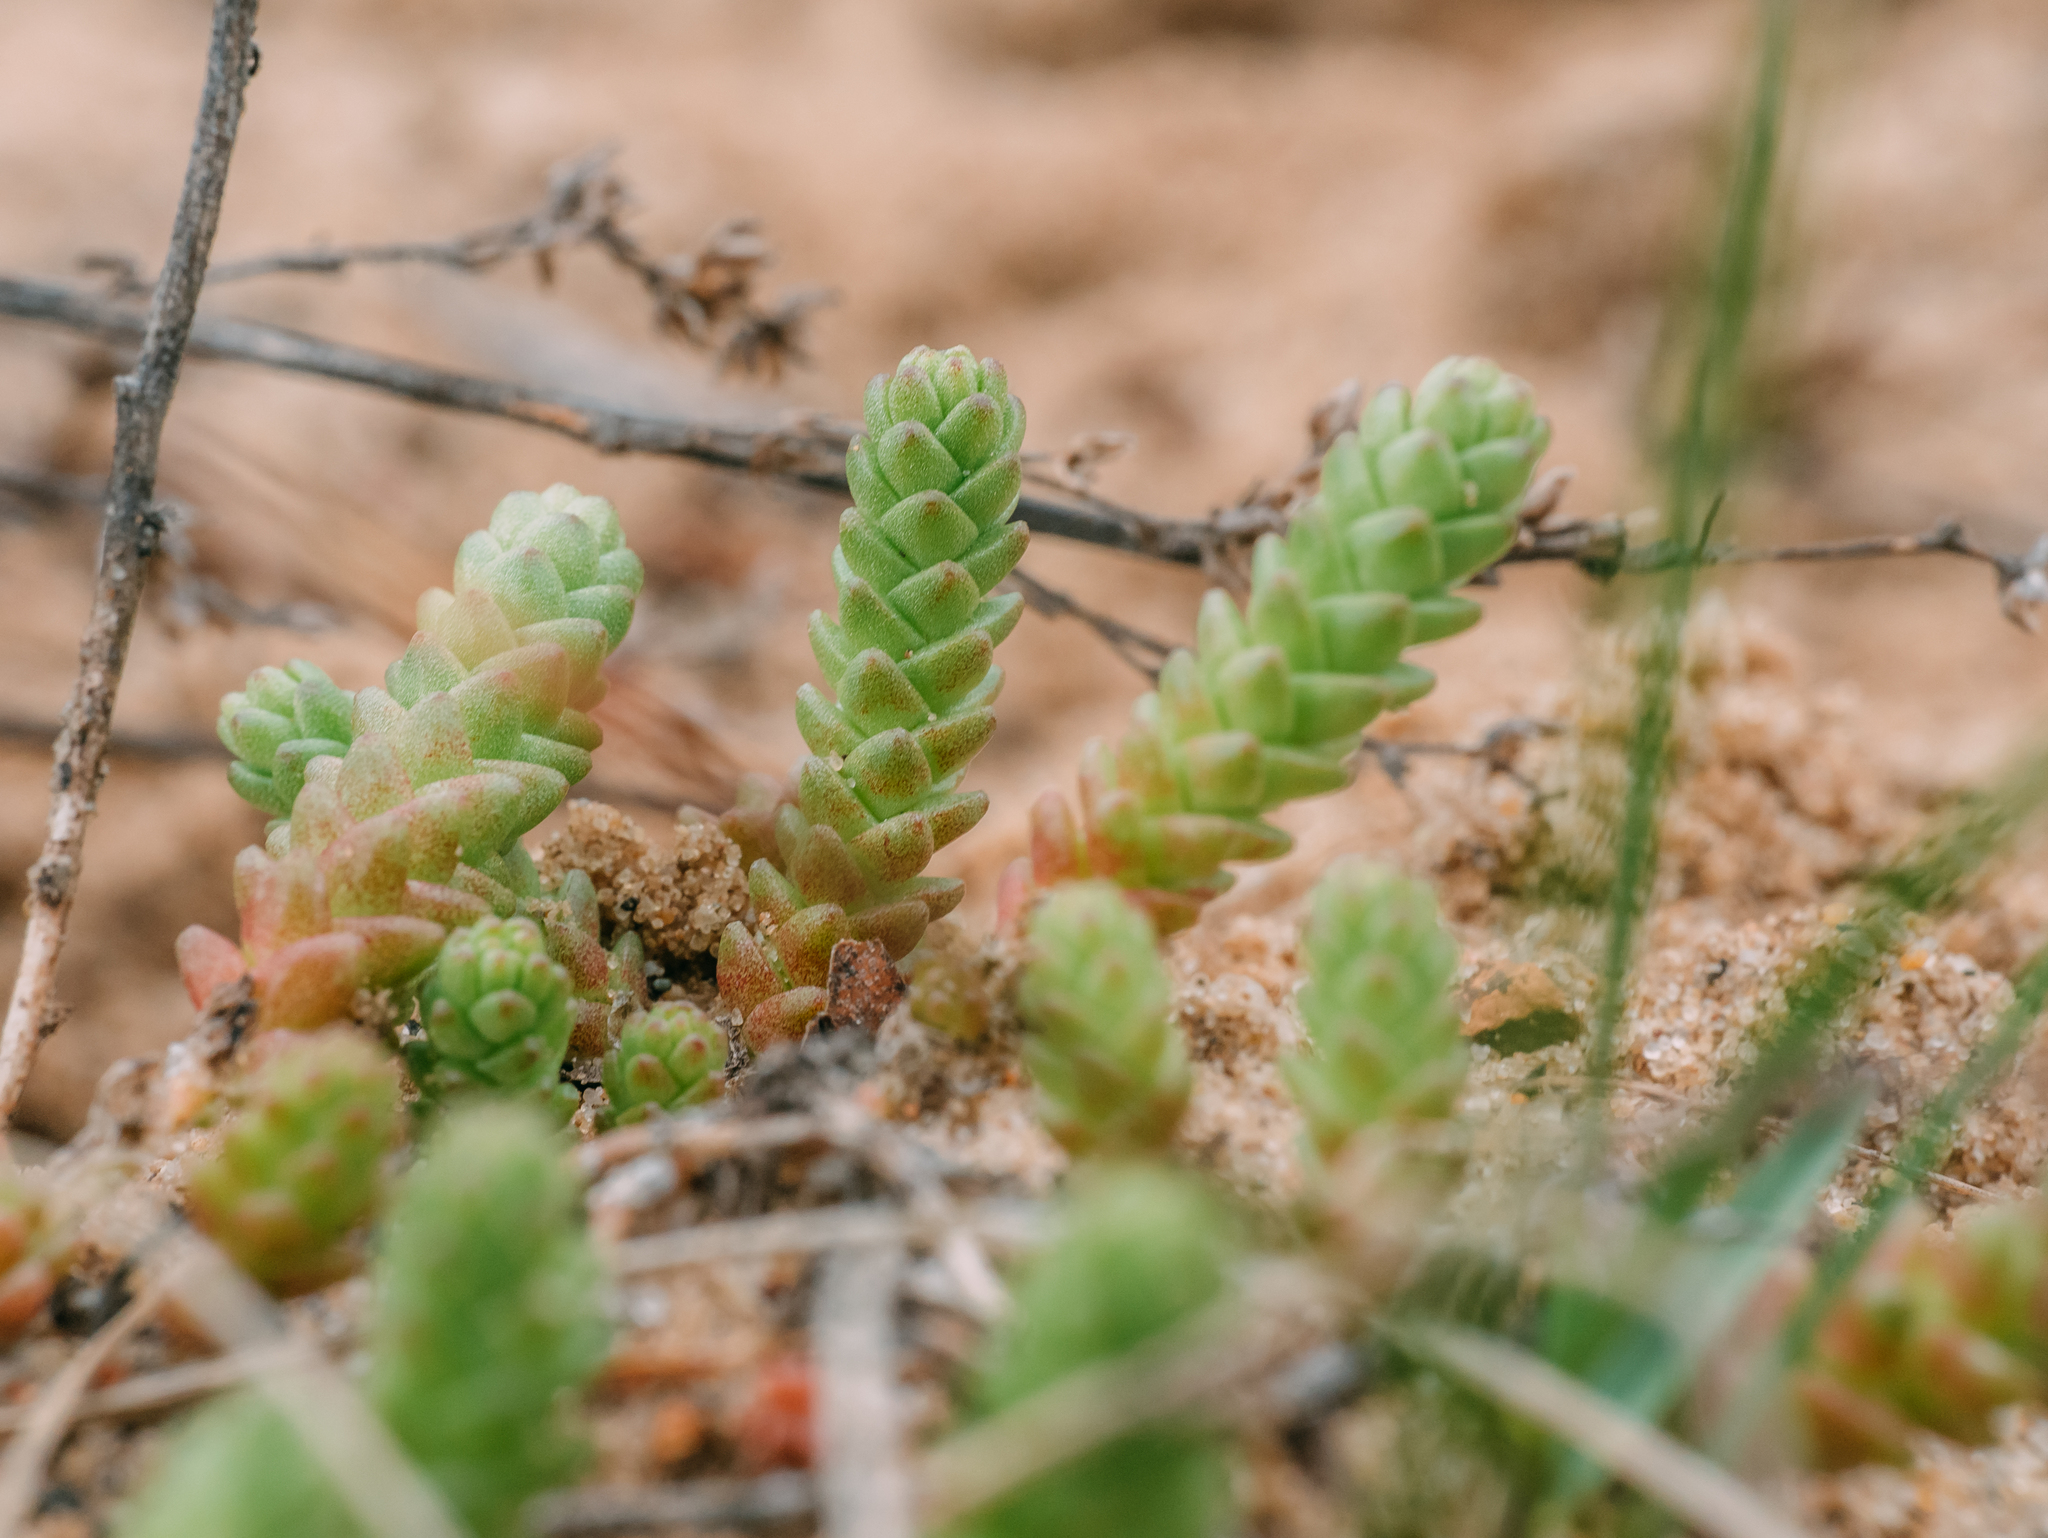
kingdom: Plantae
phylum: Tracheophyta
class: Magnoliopsida
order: Saxifragales
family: Crassulaceae
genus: Sedum
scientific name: Sedum acre
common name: Biting stonecrop
